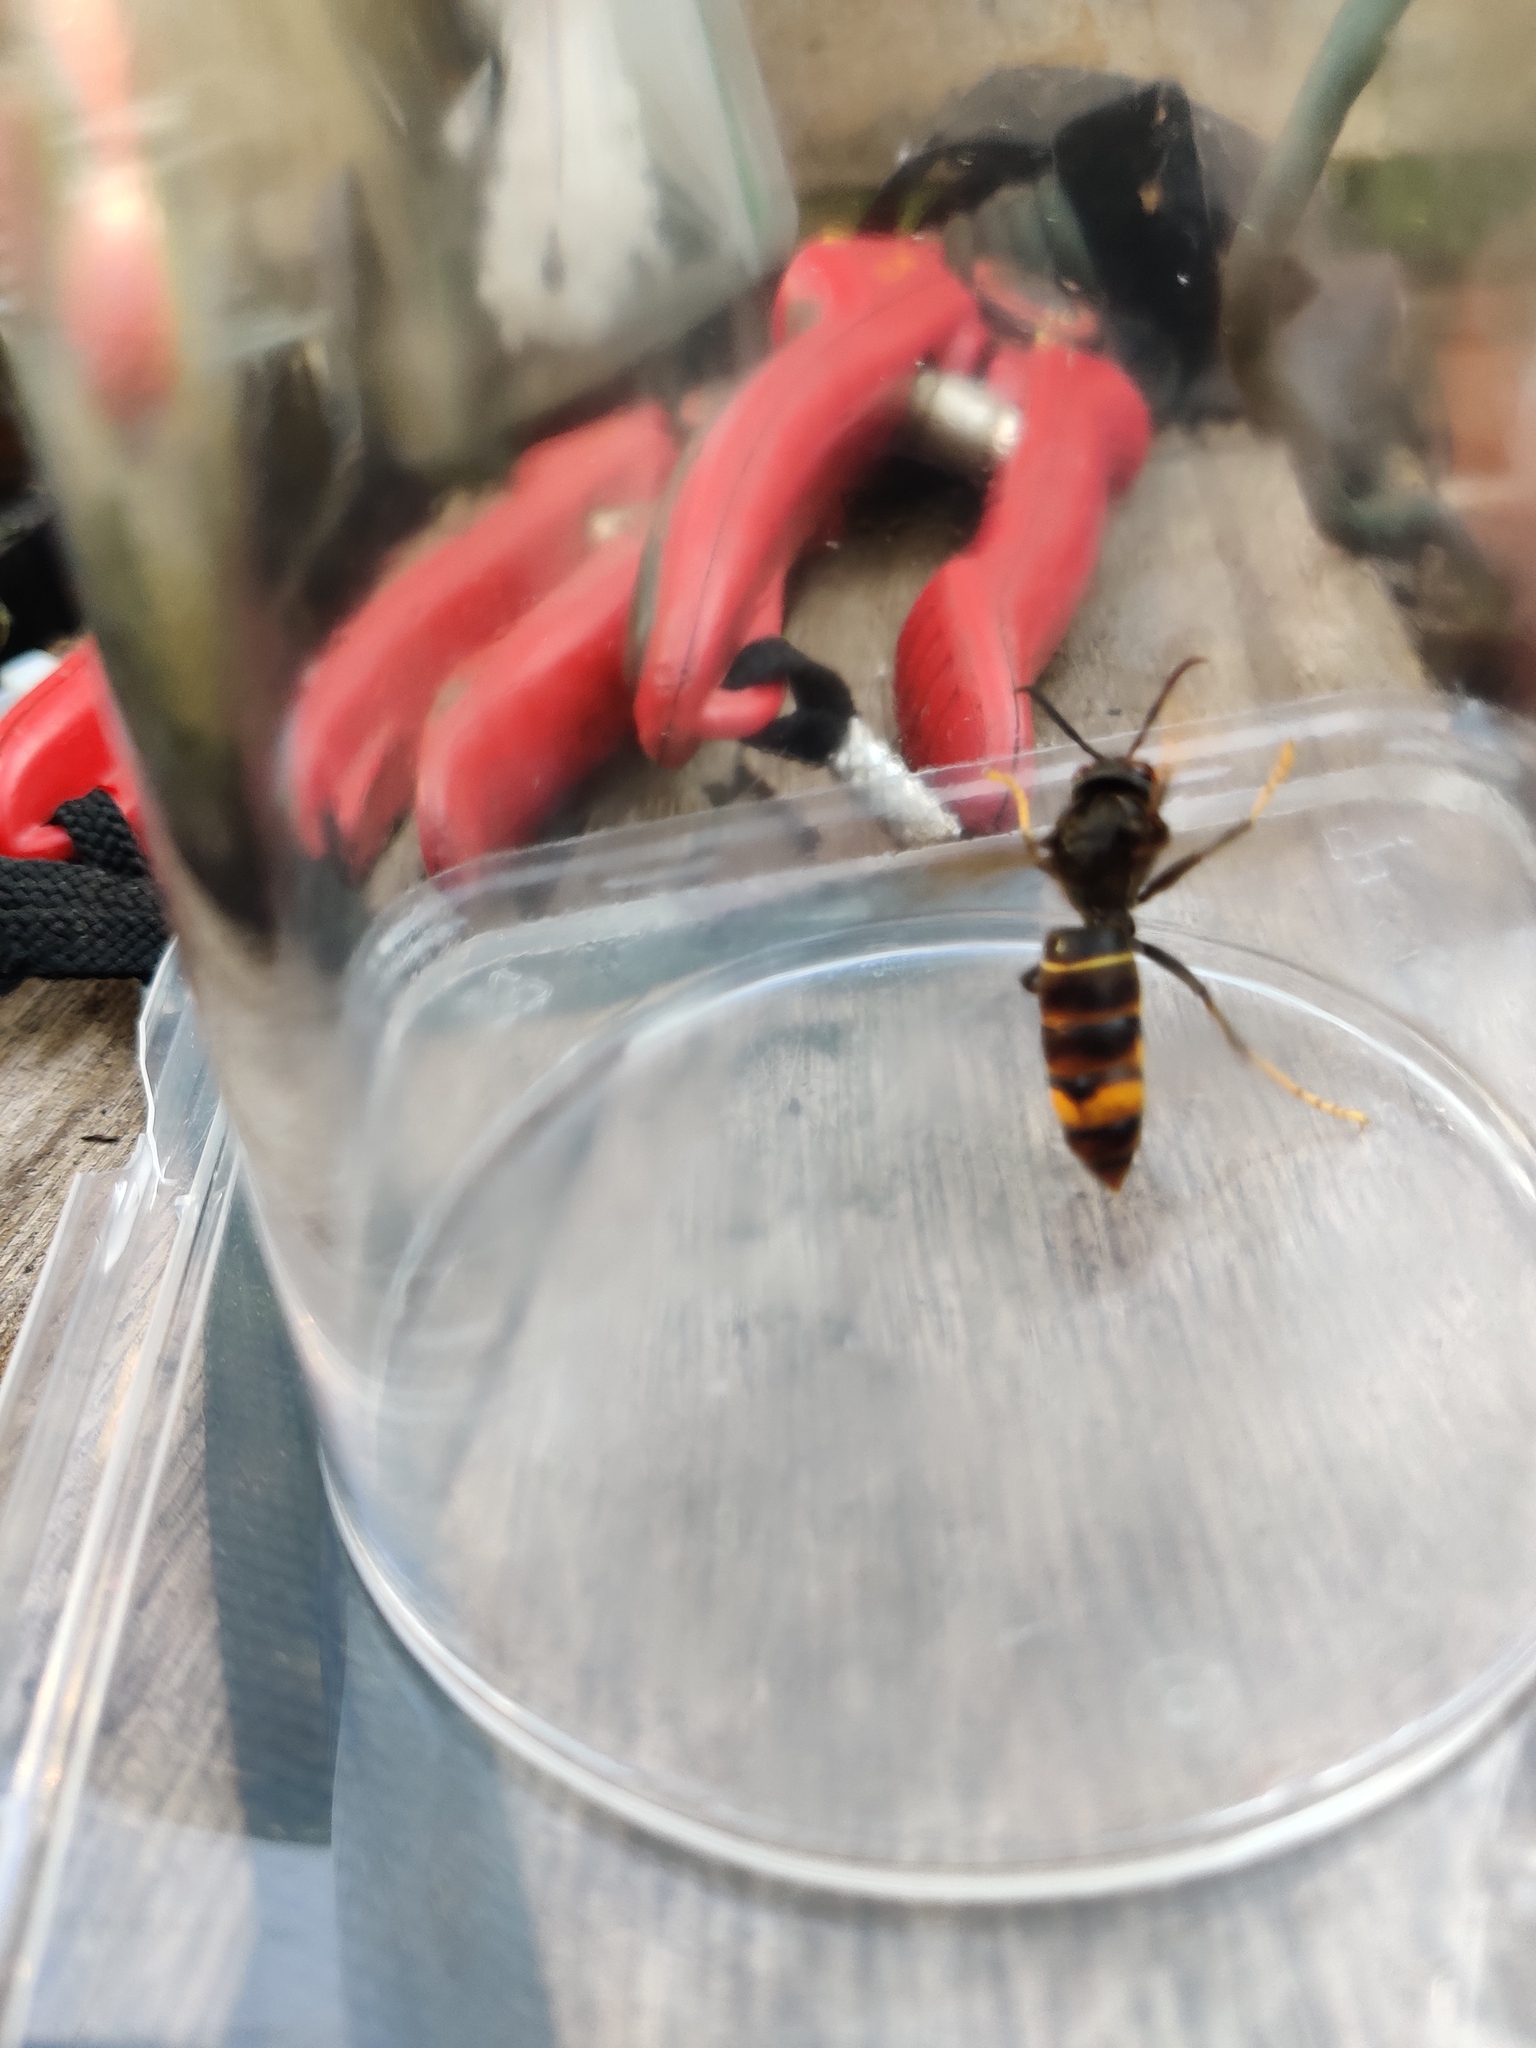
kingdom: Animalia
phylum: Arthropoda
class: Insecta
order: Hymenoptera
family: Vespidae
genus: Vespa
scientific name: Vespa velutina
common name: Asian hornet
